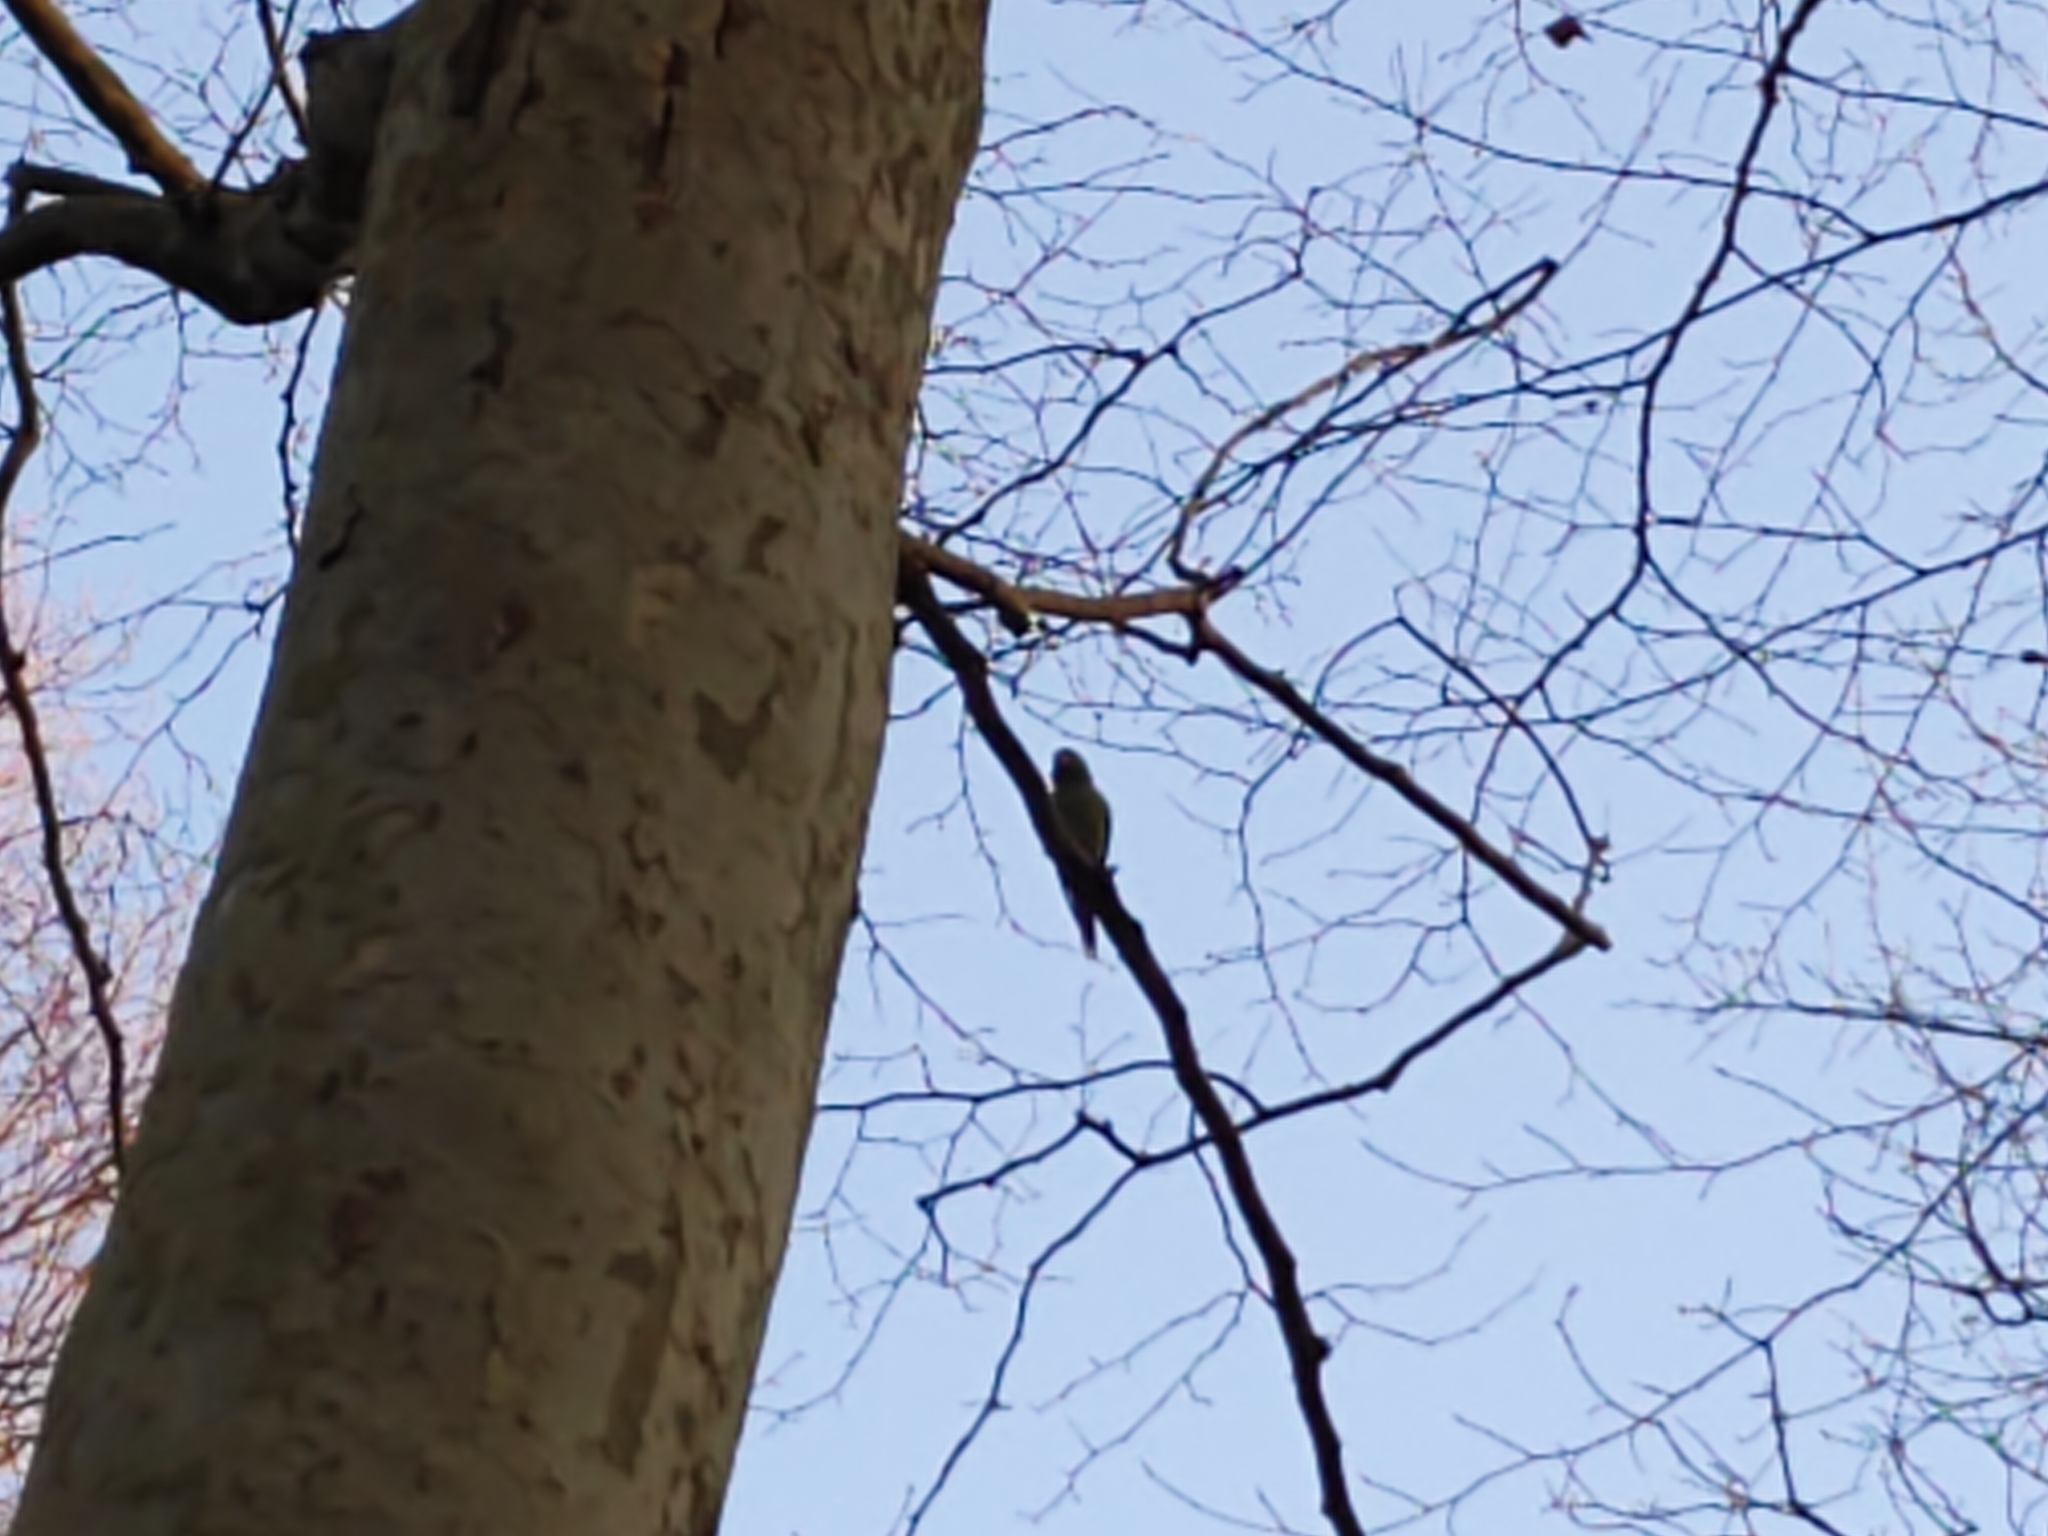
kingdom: Animalia
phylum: Chordata
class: Aves
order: Psittaciformes
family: Psittacidae
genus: Psittacula
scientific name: Psittacula krameri
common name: Rose-ringed parakeet
